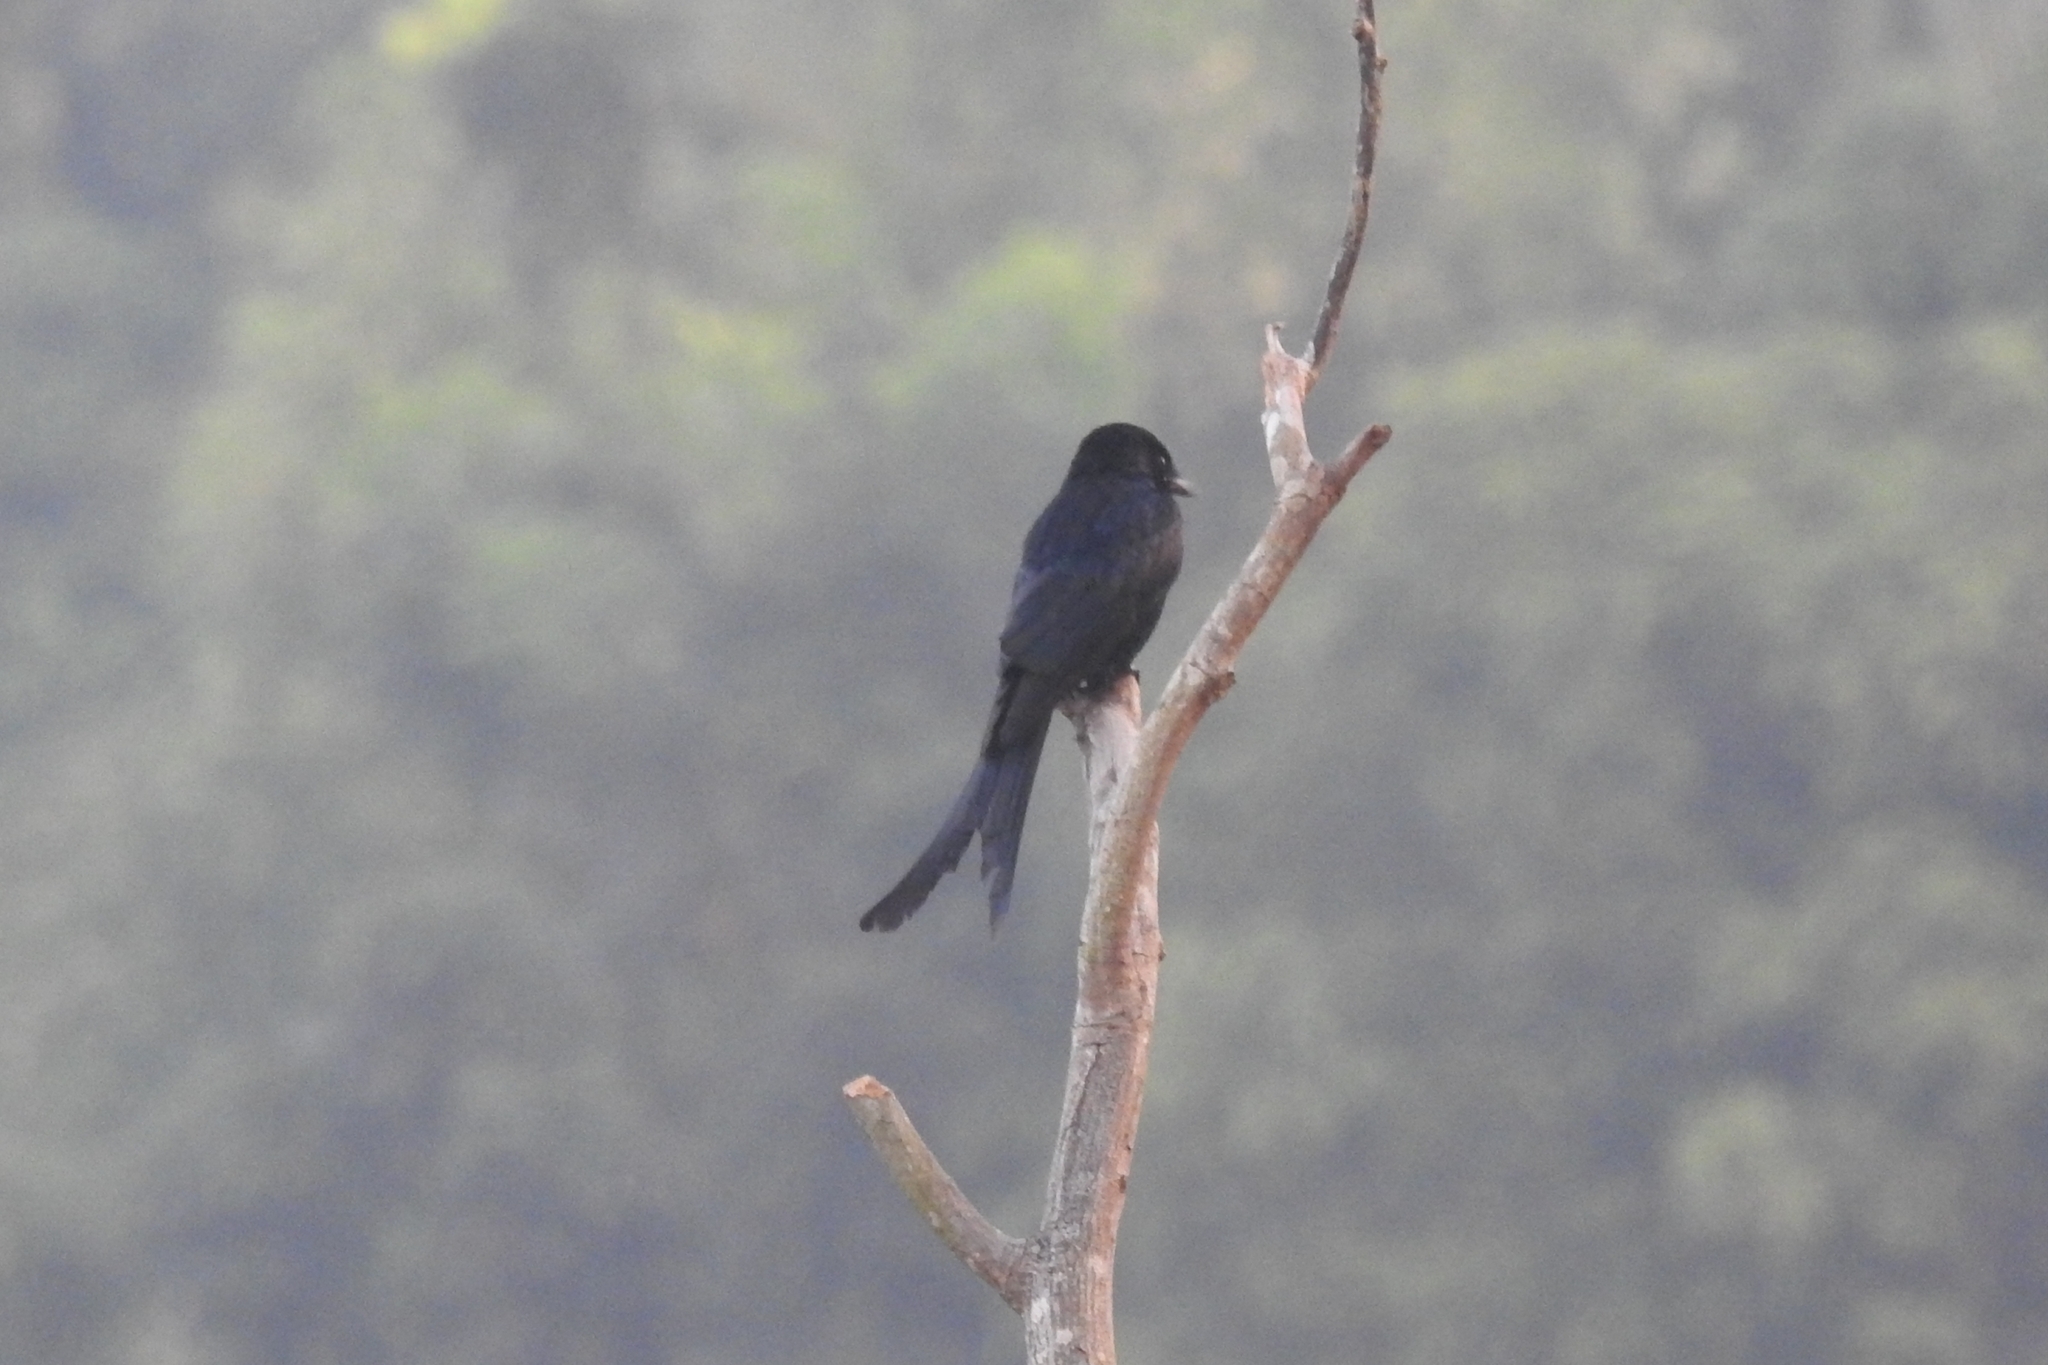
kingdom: Animalia
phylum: Chordata
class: Aves
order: Passeriformes
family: Dicruridae
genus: Dicrurus
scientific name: Dicrurus macrocercus
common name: Black drongo
